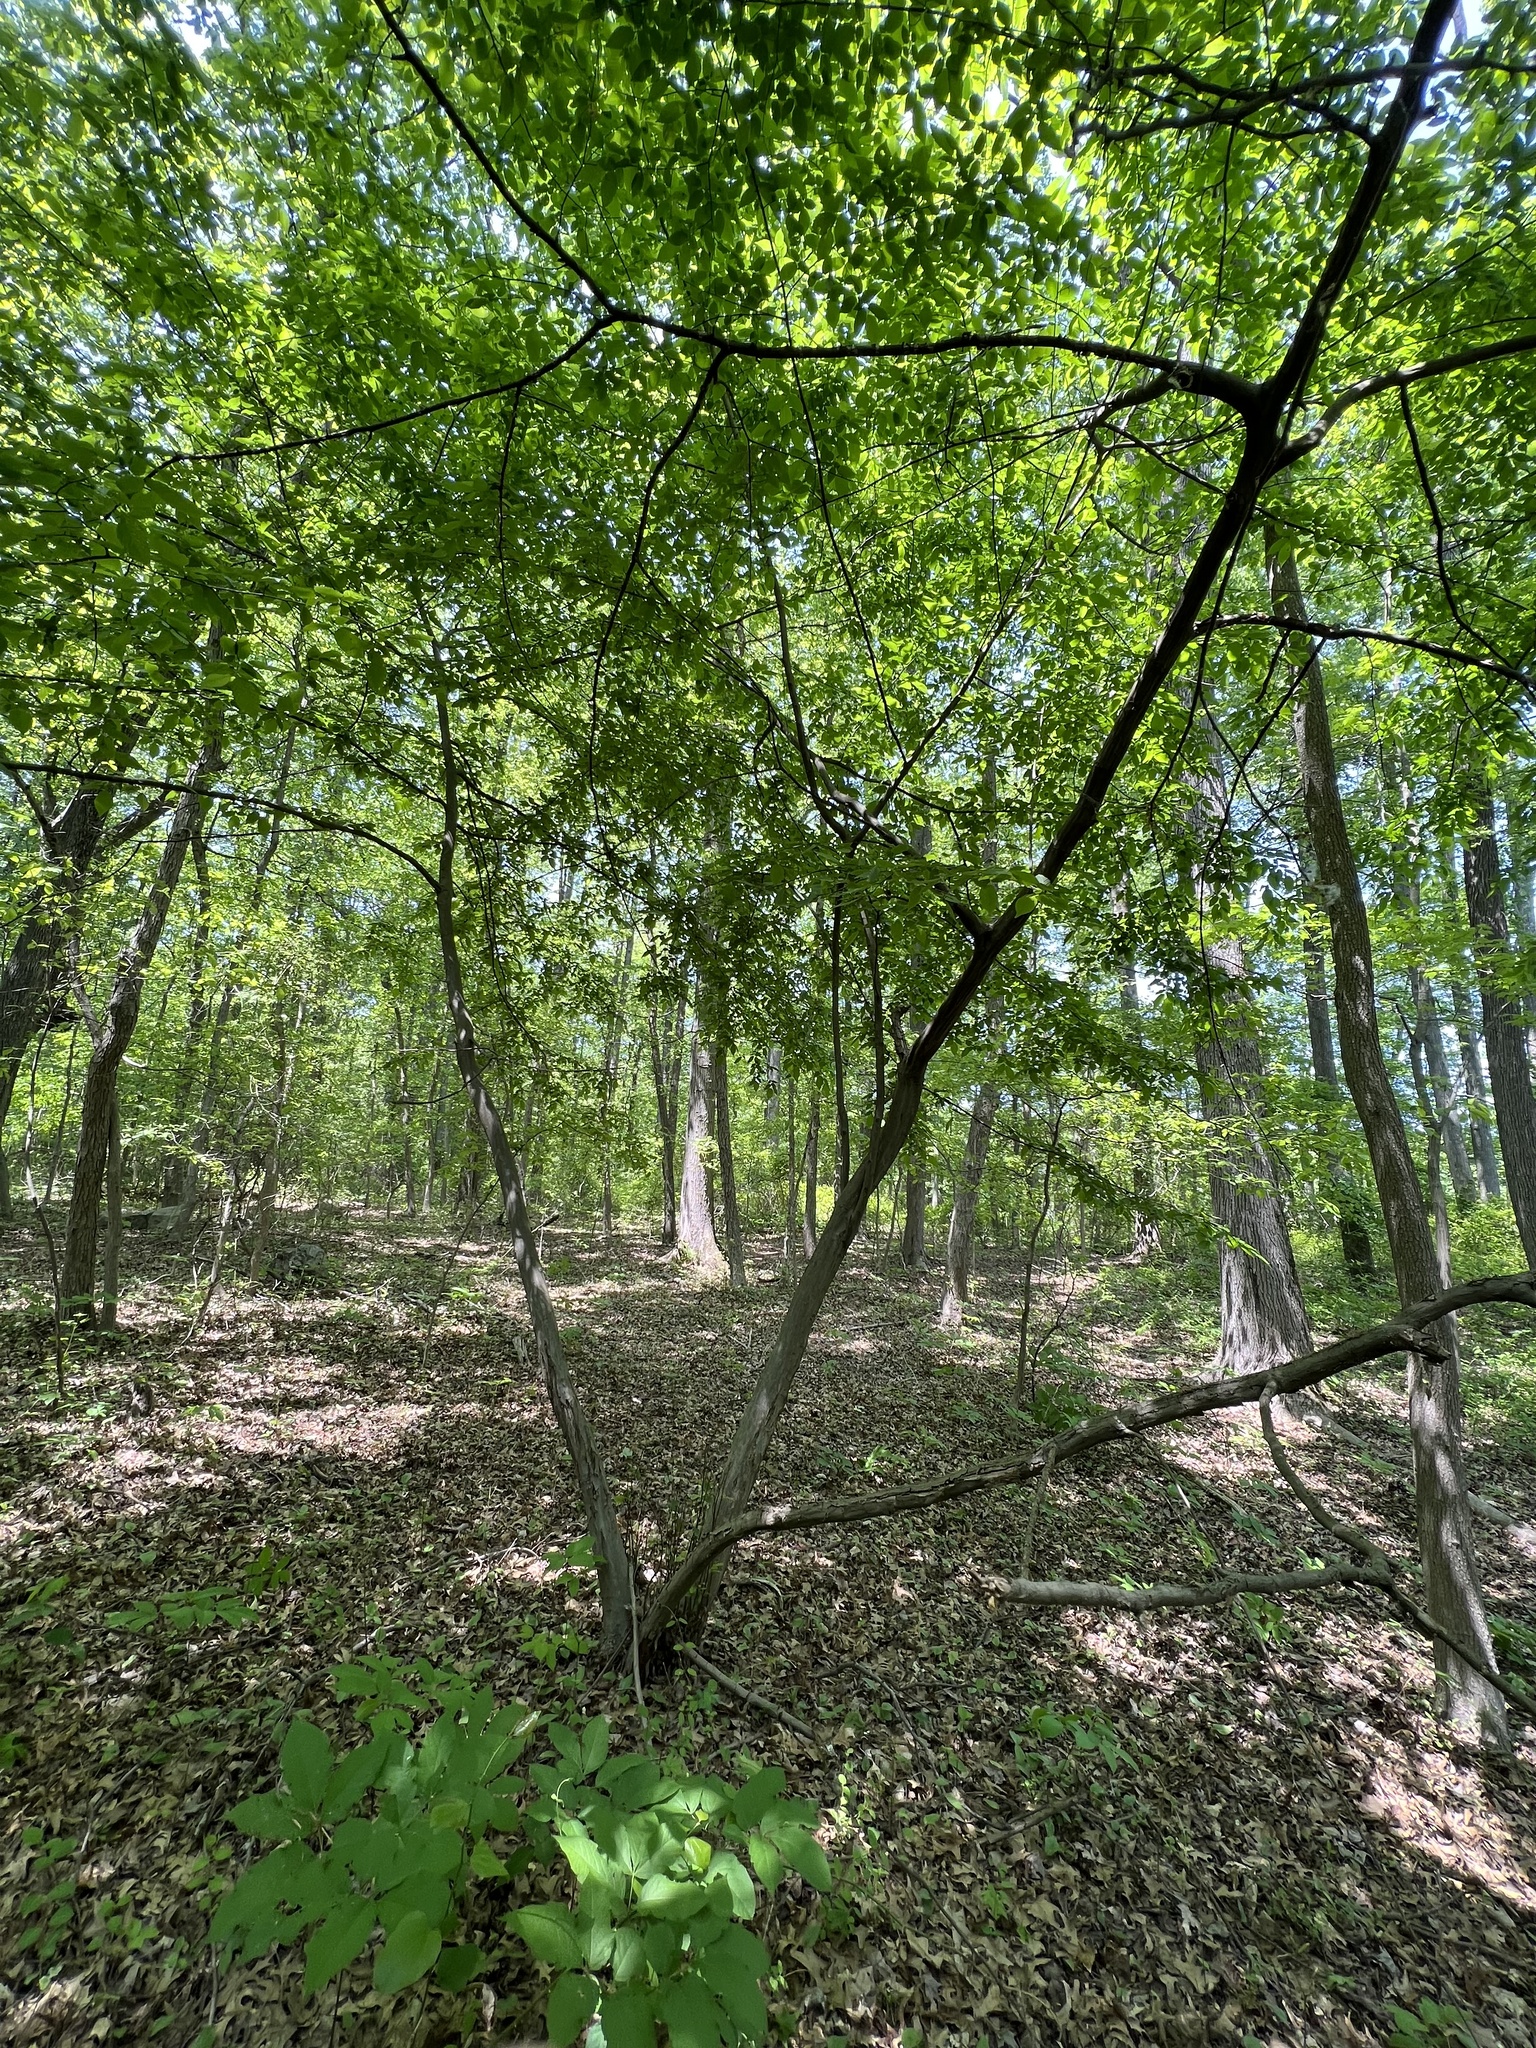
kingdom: Plantae
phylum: Tracheophyta
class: Magnoliopsida
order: Fagales
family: Betulaceae
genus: Carpinus
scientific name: Carpinus caroliniana
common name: American hornbeam
